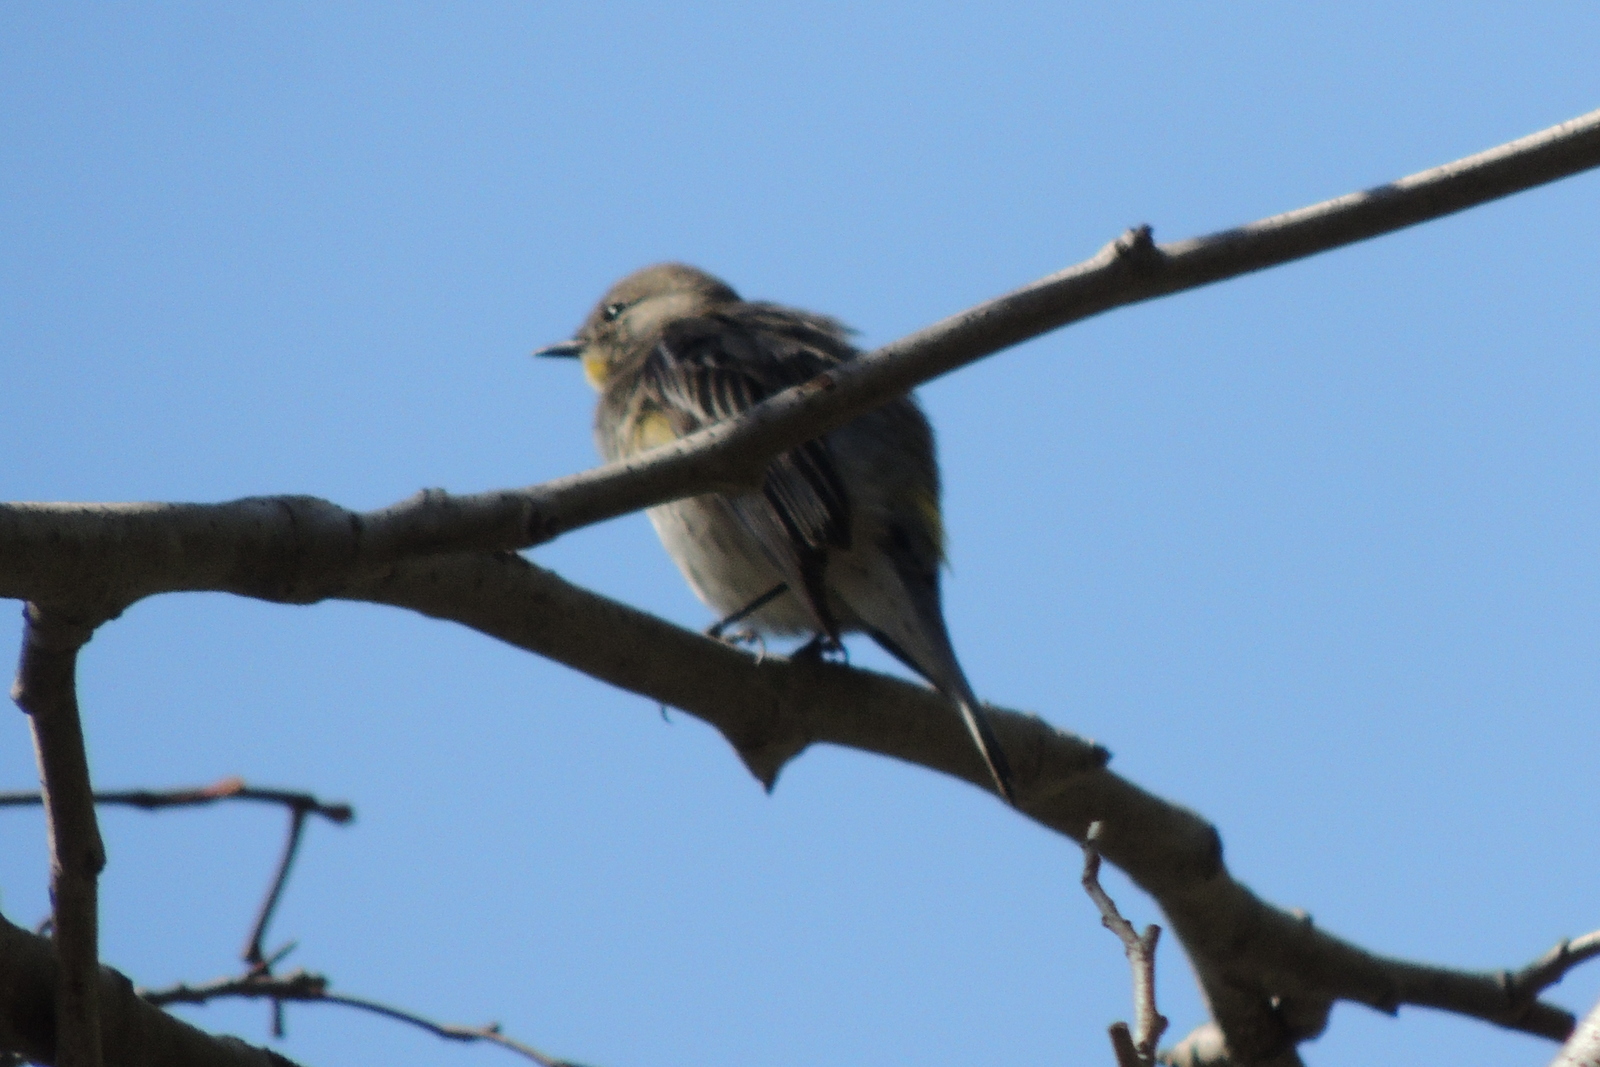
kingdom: Animalia
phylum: Chordata
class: Aves
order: Passeriformes
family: Parulidae
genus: Setophaga
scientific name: Setophaga coronata
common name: Myrtle warbler
